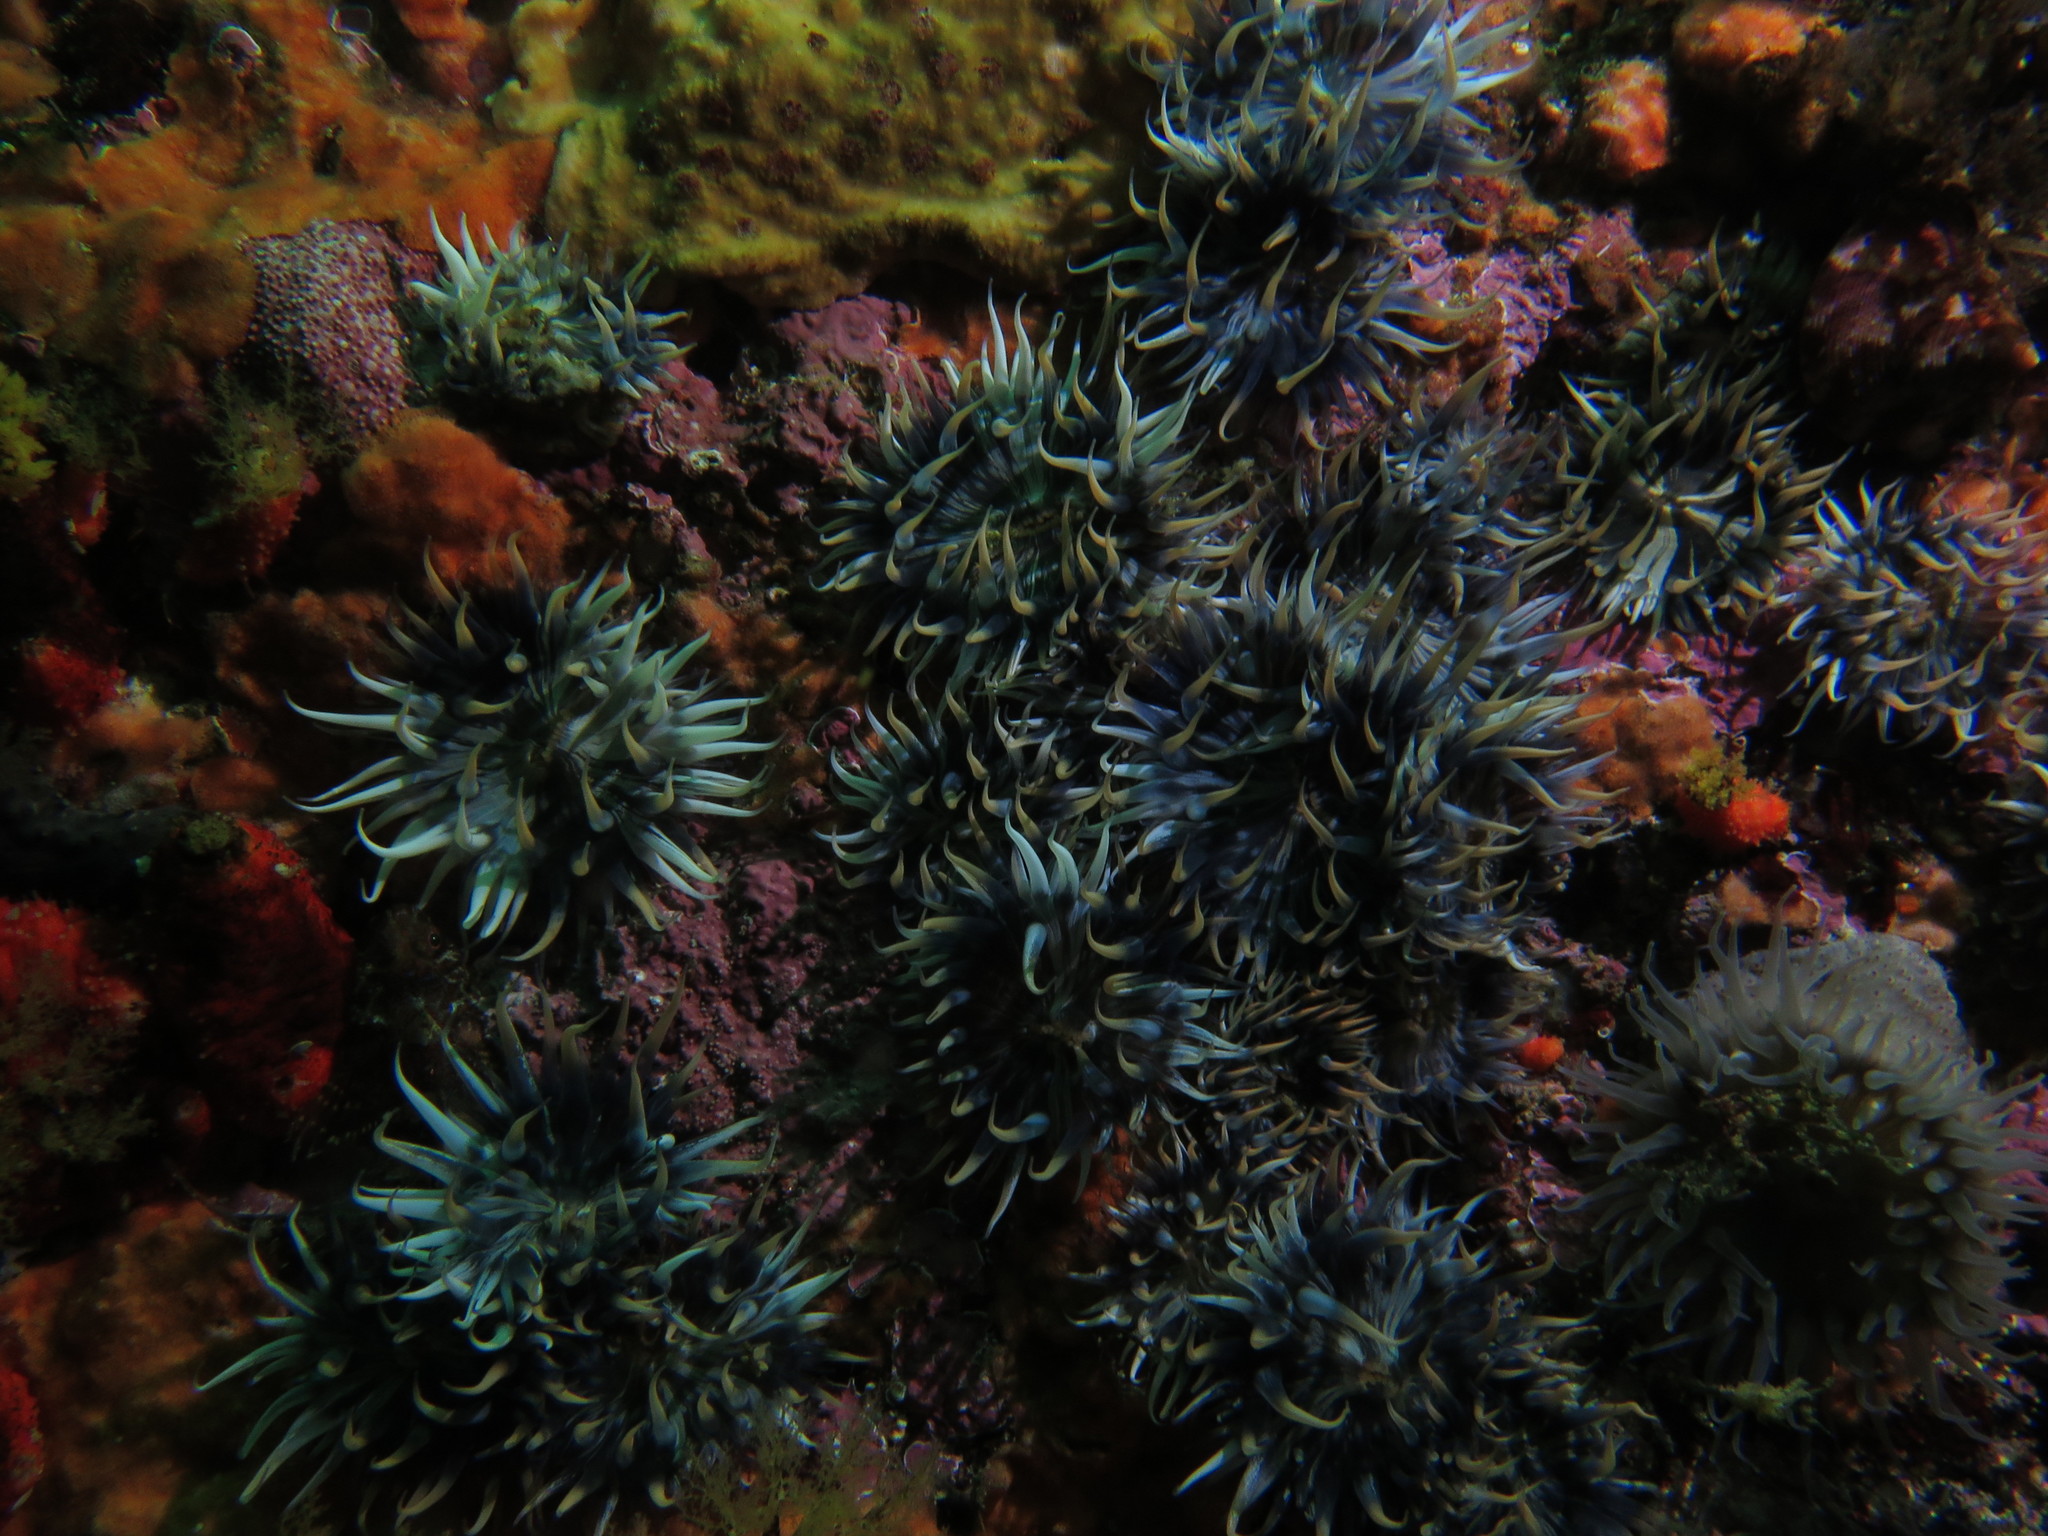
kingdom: Animalia
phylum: Cnidaria
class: Anthozoa
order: Actiniaria
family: Sagartiidae
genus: Anthothoe
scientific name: Anthothoe stimpsonii
